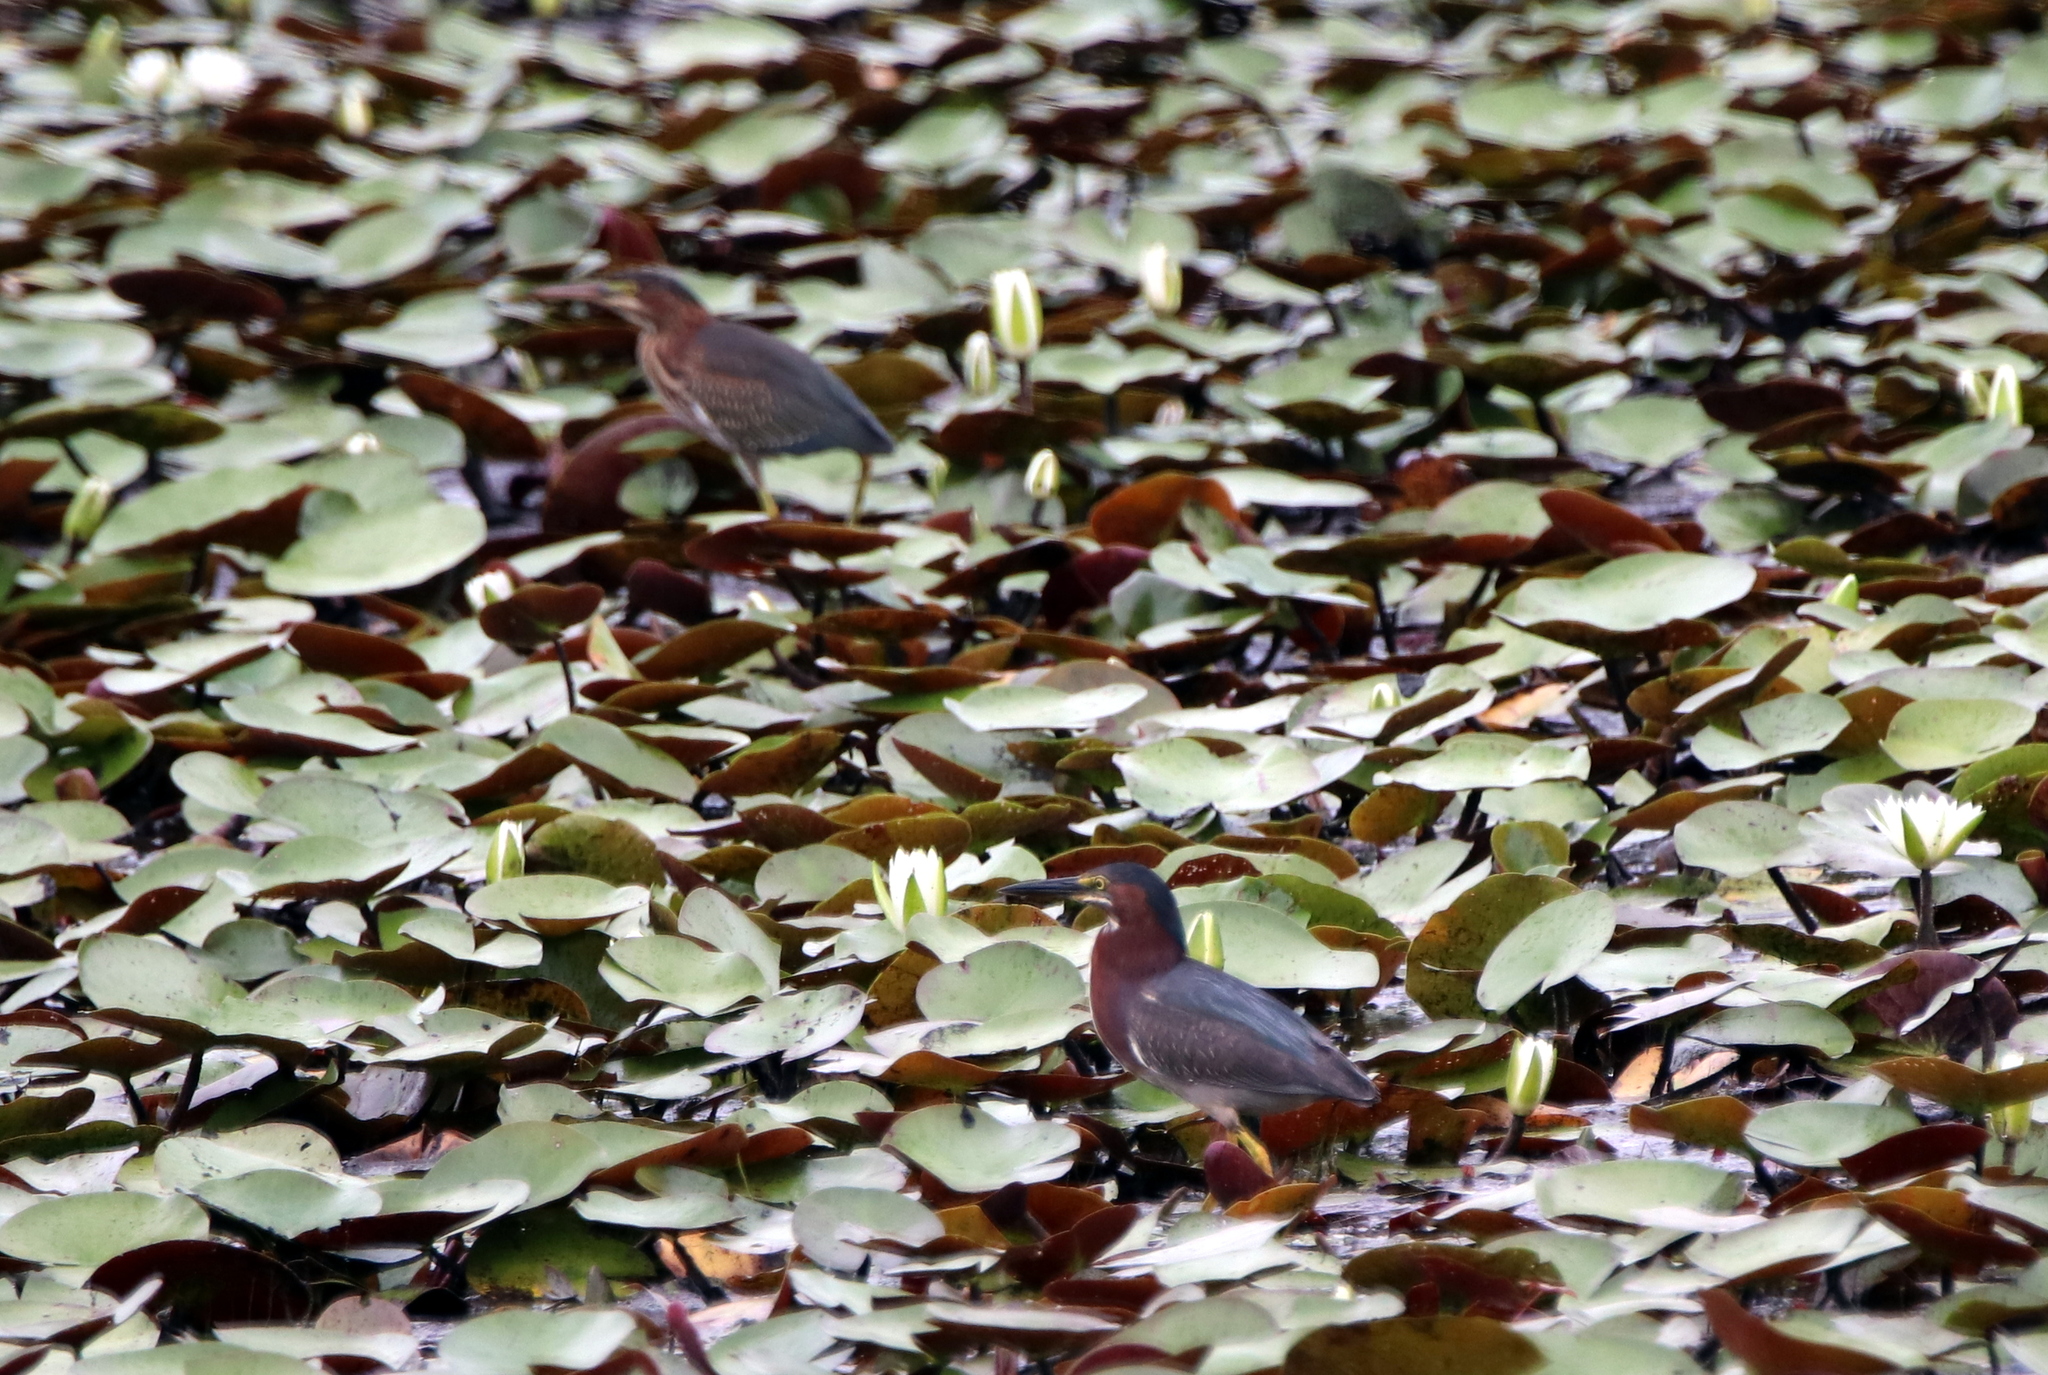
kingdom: Animalia
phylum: Chordata
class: Aves
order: Pelecaniformes
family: Ardeidae
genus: Butorides
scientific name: Butorides virescens
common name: Green heron
